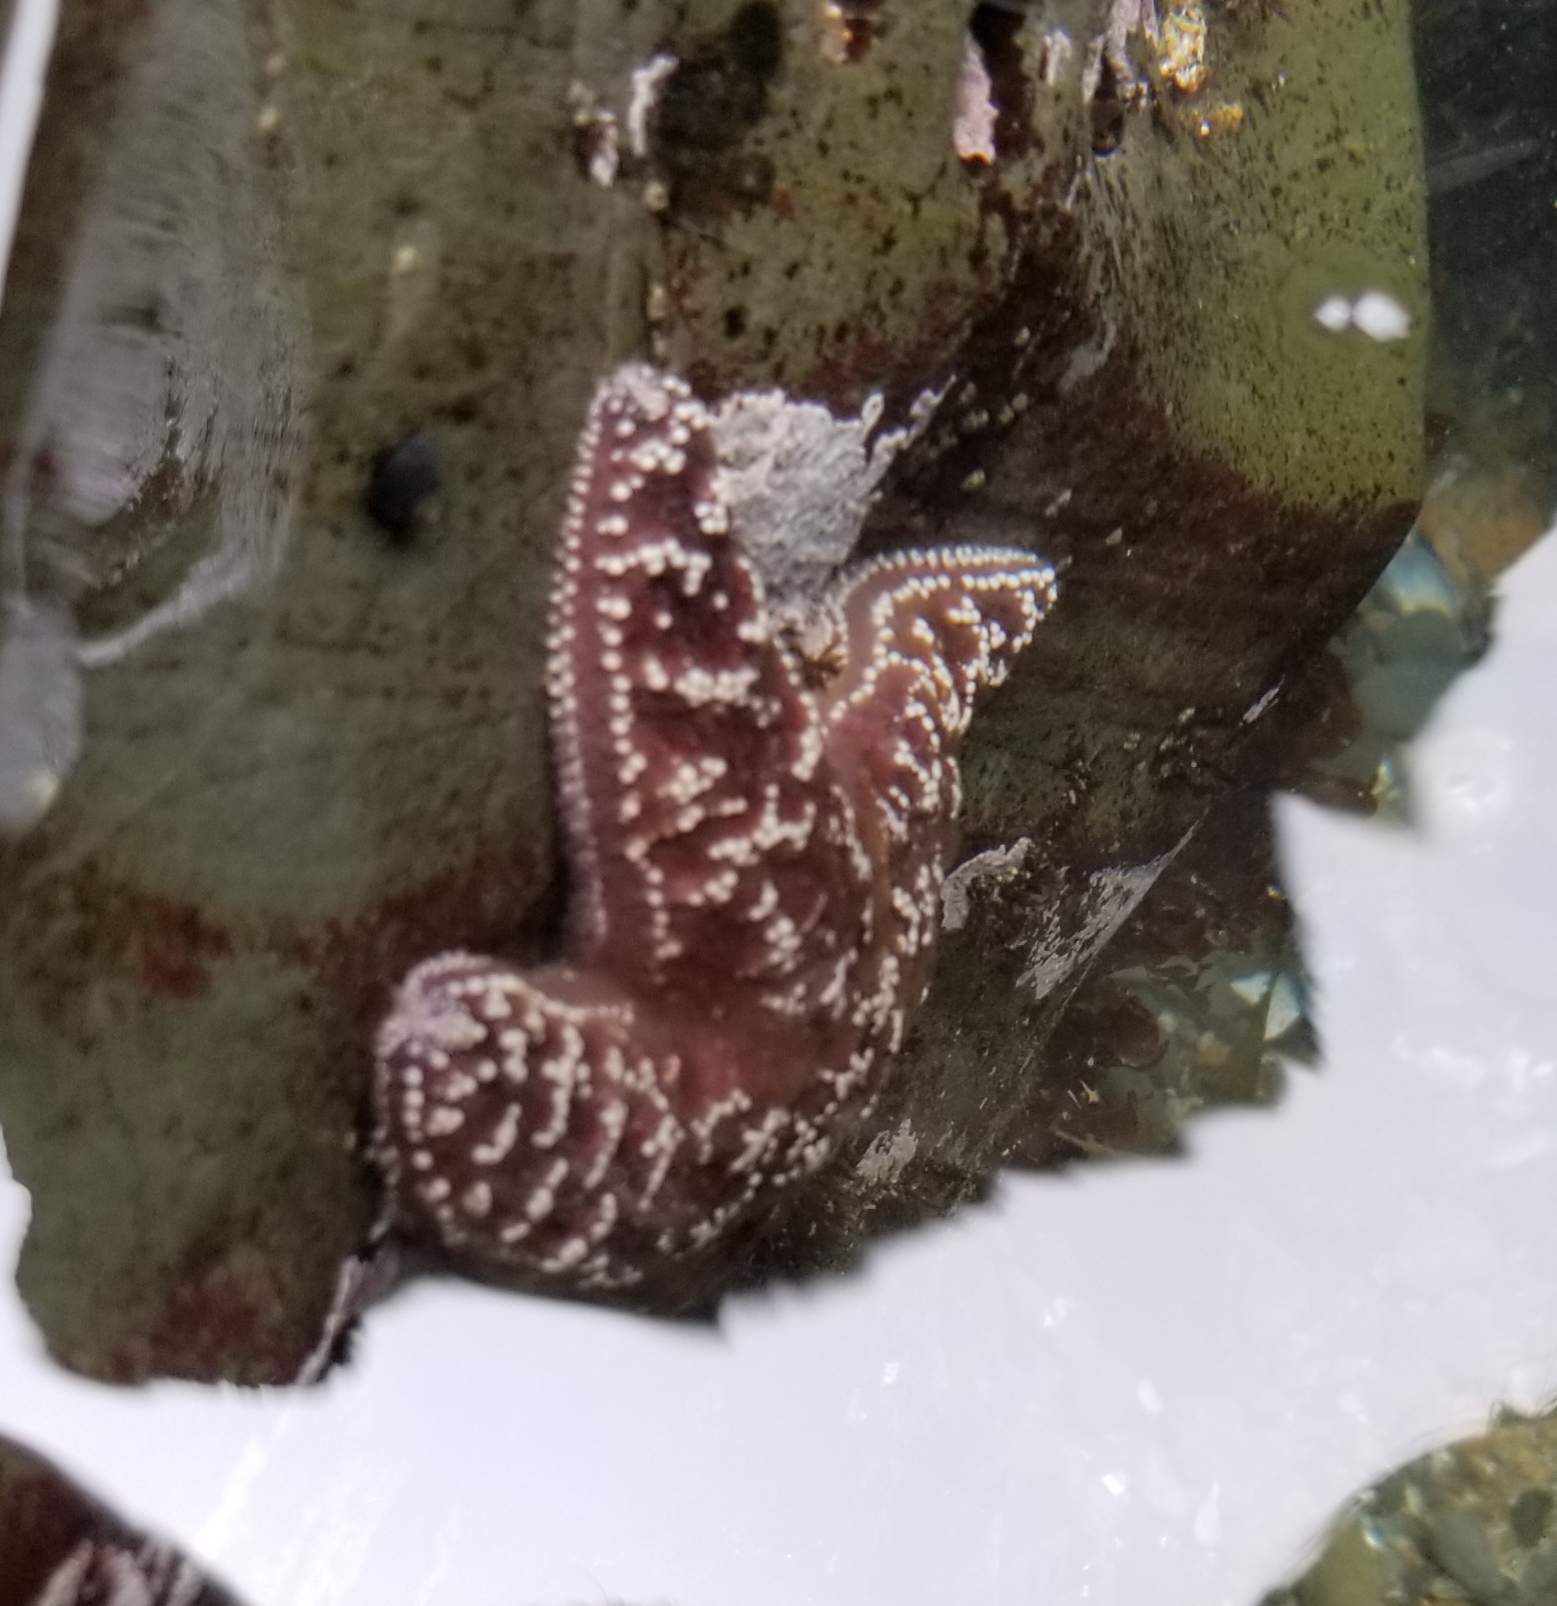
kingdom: Animalia
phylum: Echinodermata
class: Asteroidea
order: Forcipulatida
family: Asteriidae
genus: Pisaster
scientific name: Pisaster ochraceus
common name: Ochre stars
